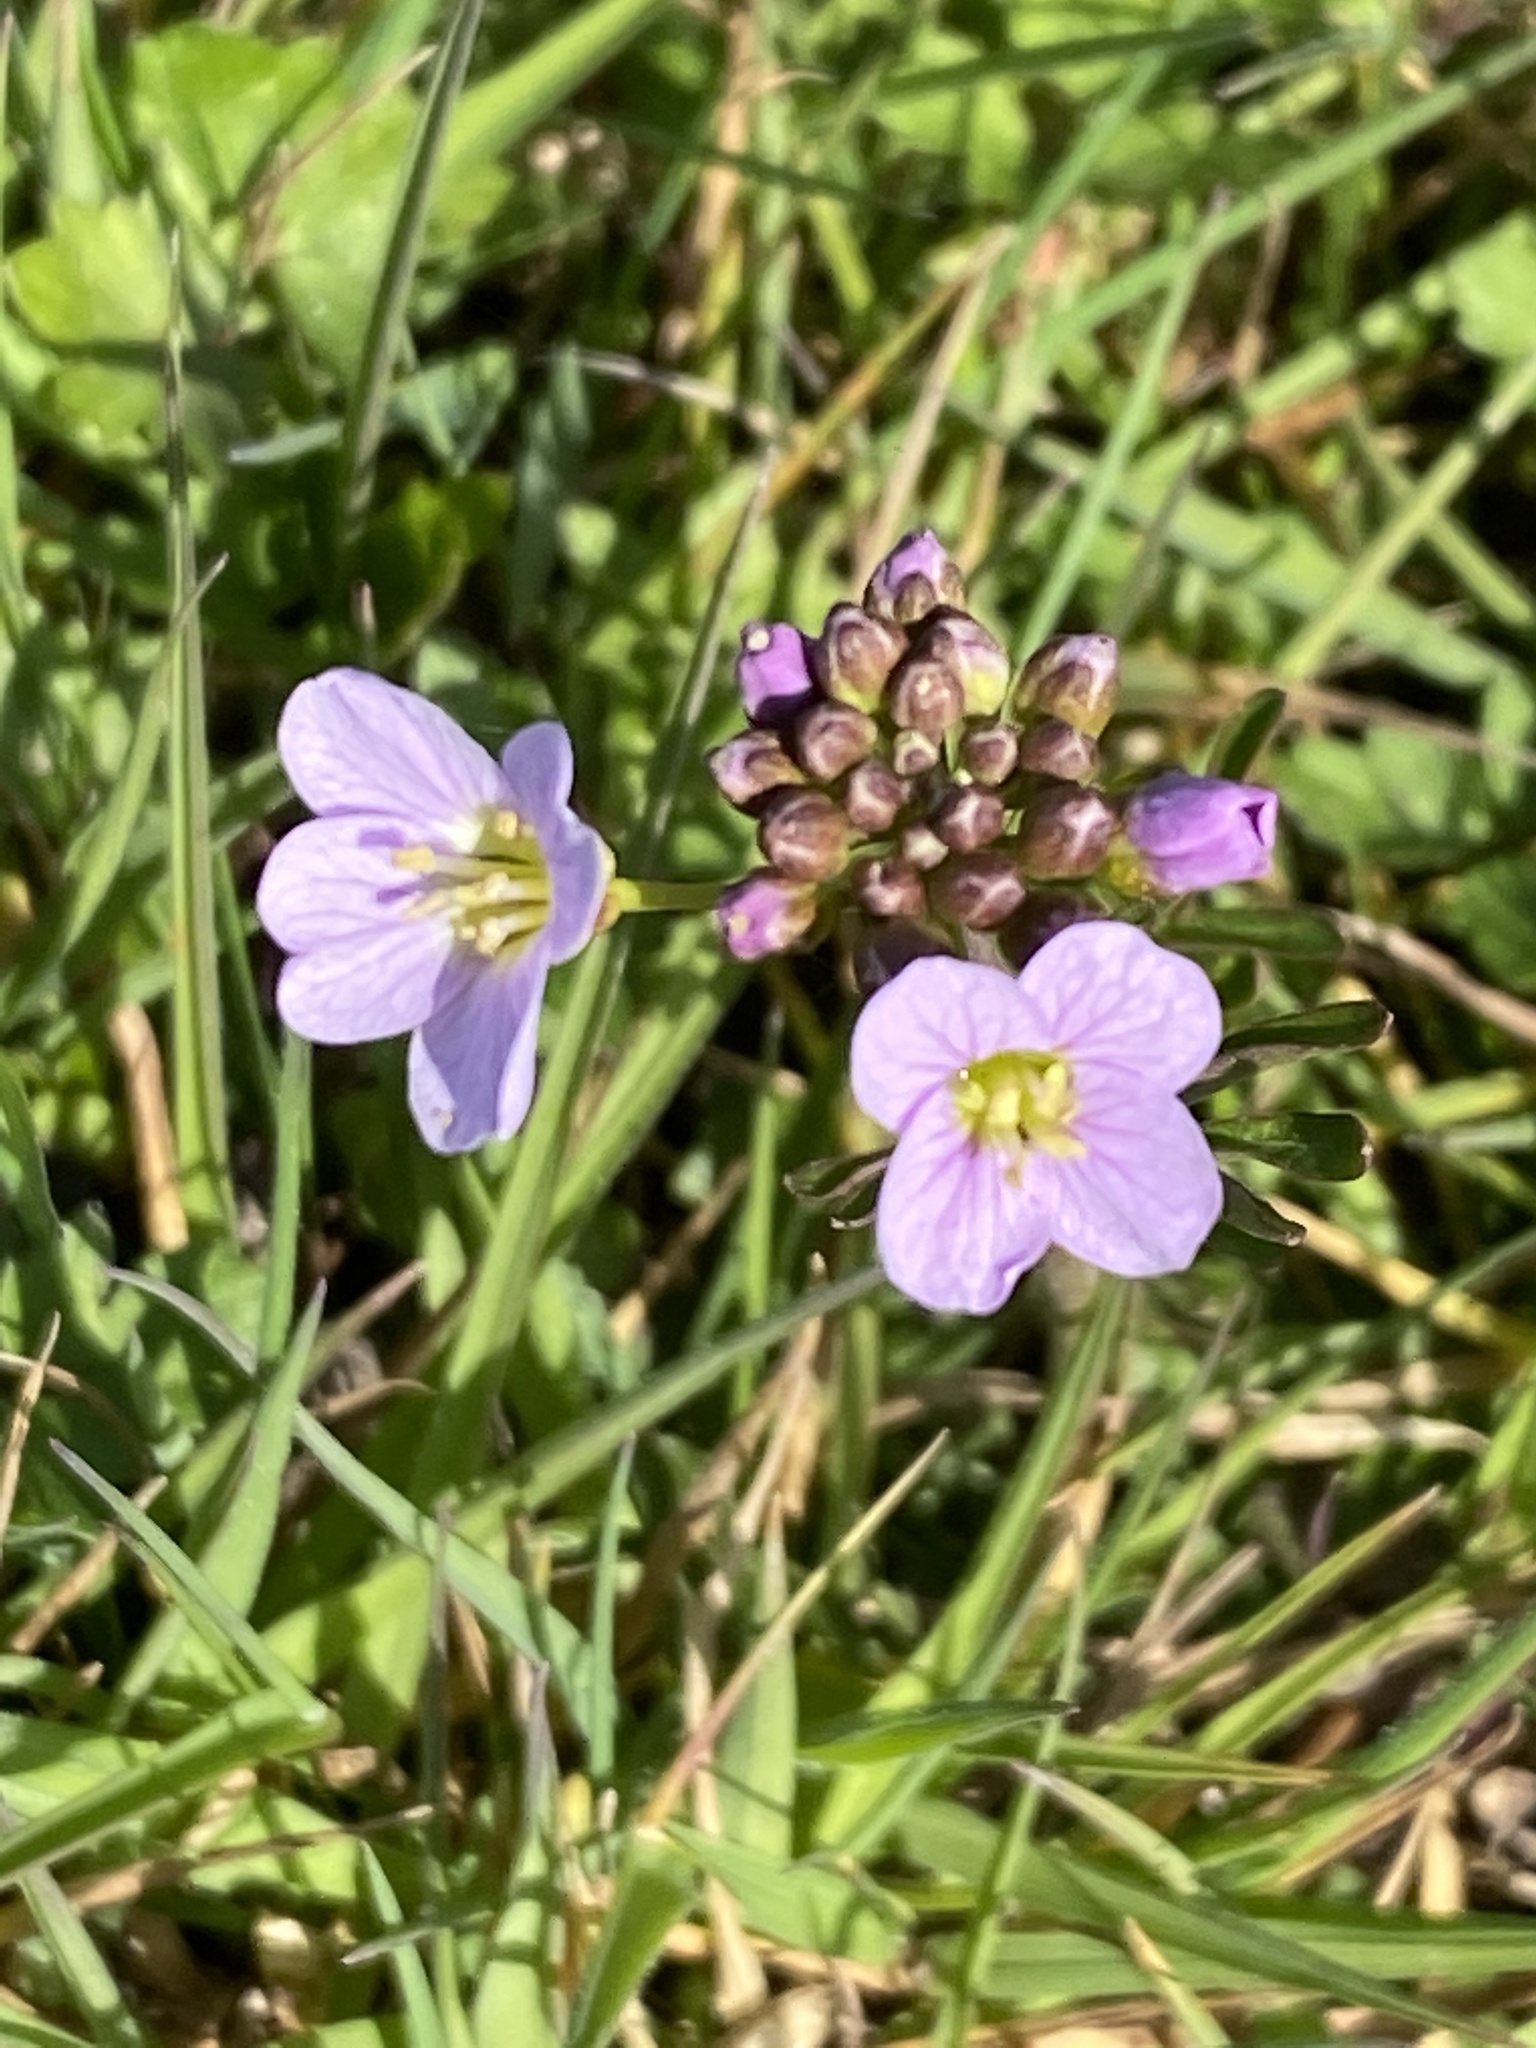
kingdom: Plantae
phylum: Tracheophyta
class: Magnoliopsida
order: Brassicales
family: Brassicaceae
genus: Cardamine
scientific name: Cardamine pratensis
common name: Cuckoo flower
